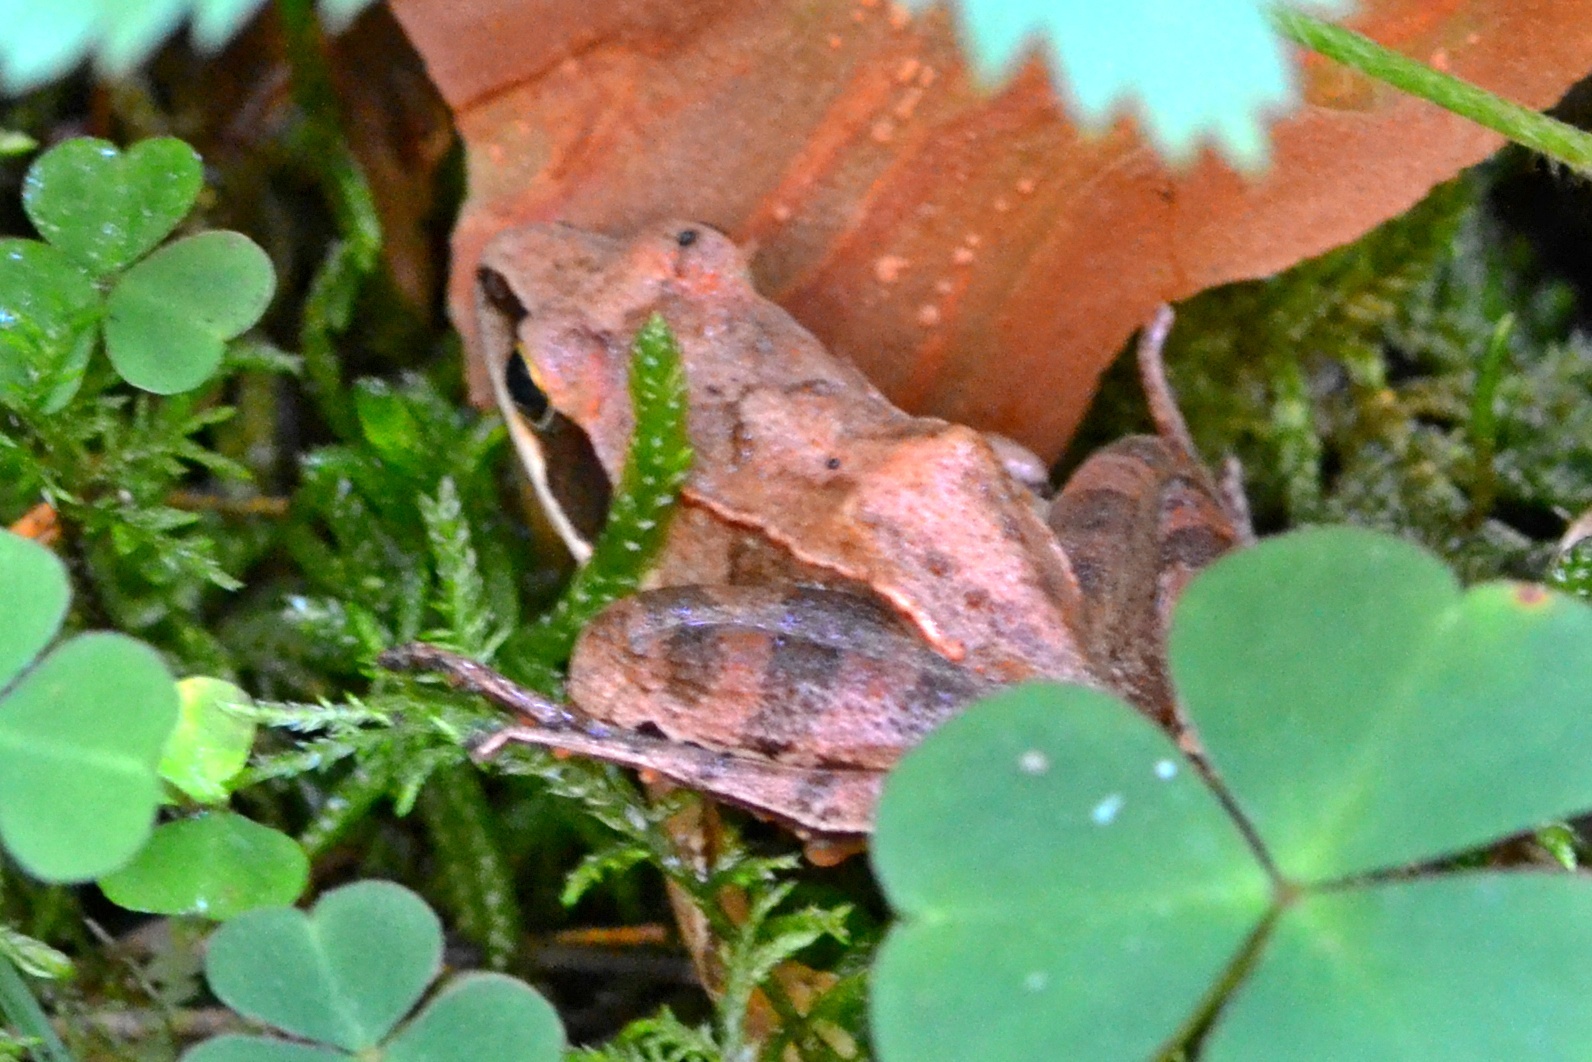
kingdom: Animalia
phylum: Chordata
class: Amphibia
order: Anura
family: Ranidae
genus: Rana
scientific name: Rana dalmatina
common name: Agile frog
